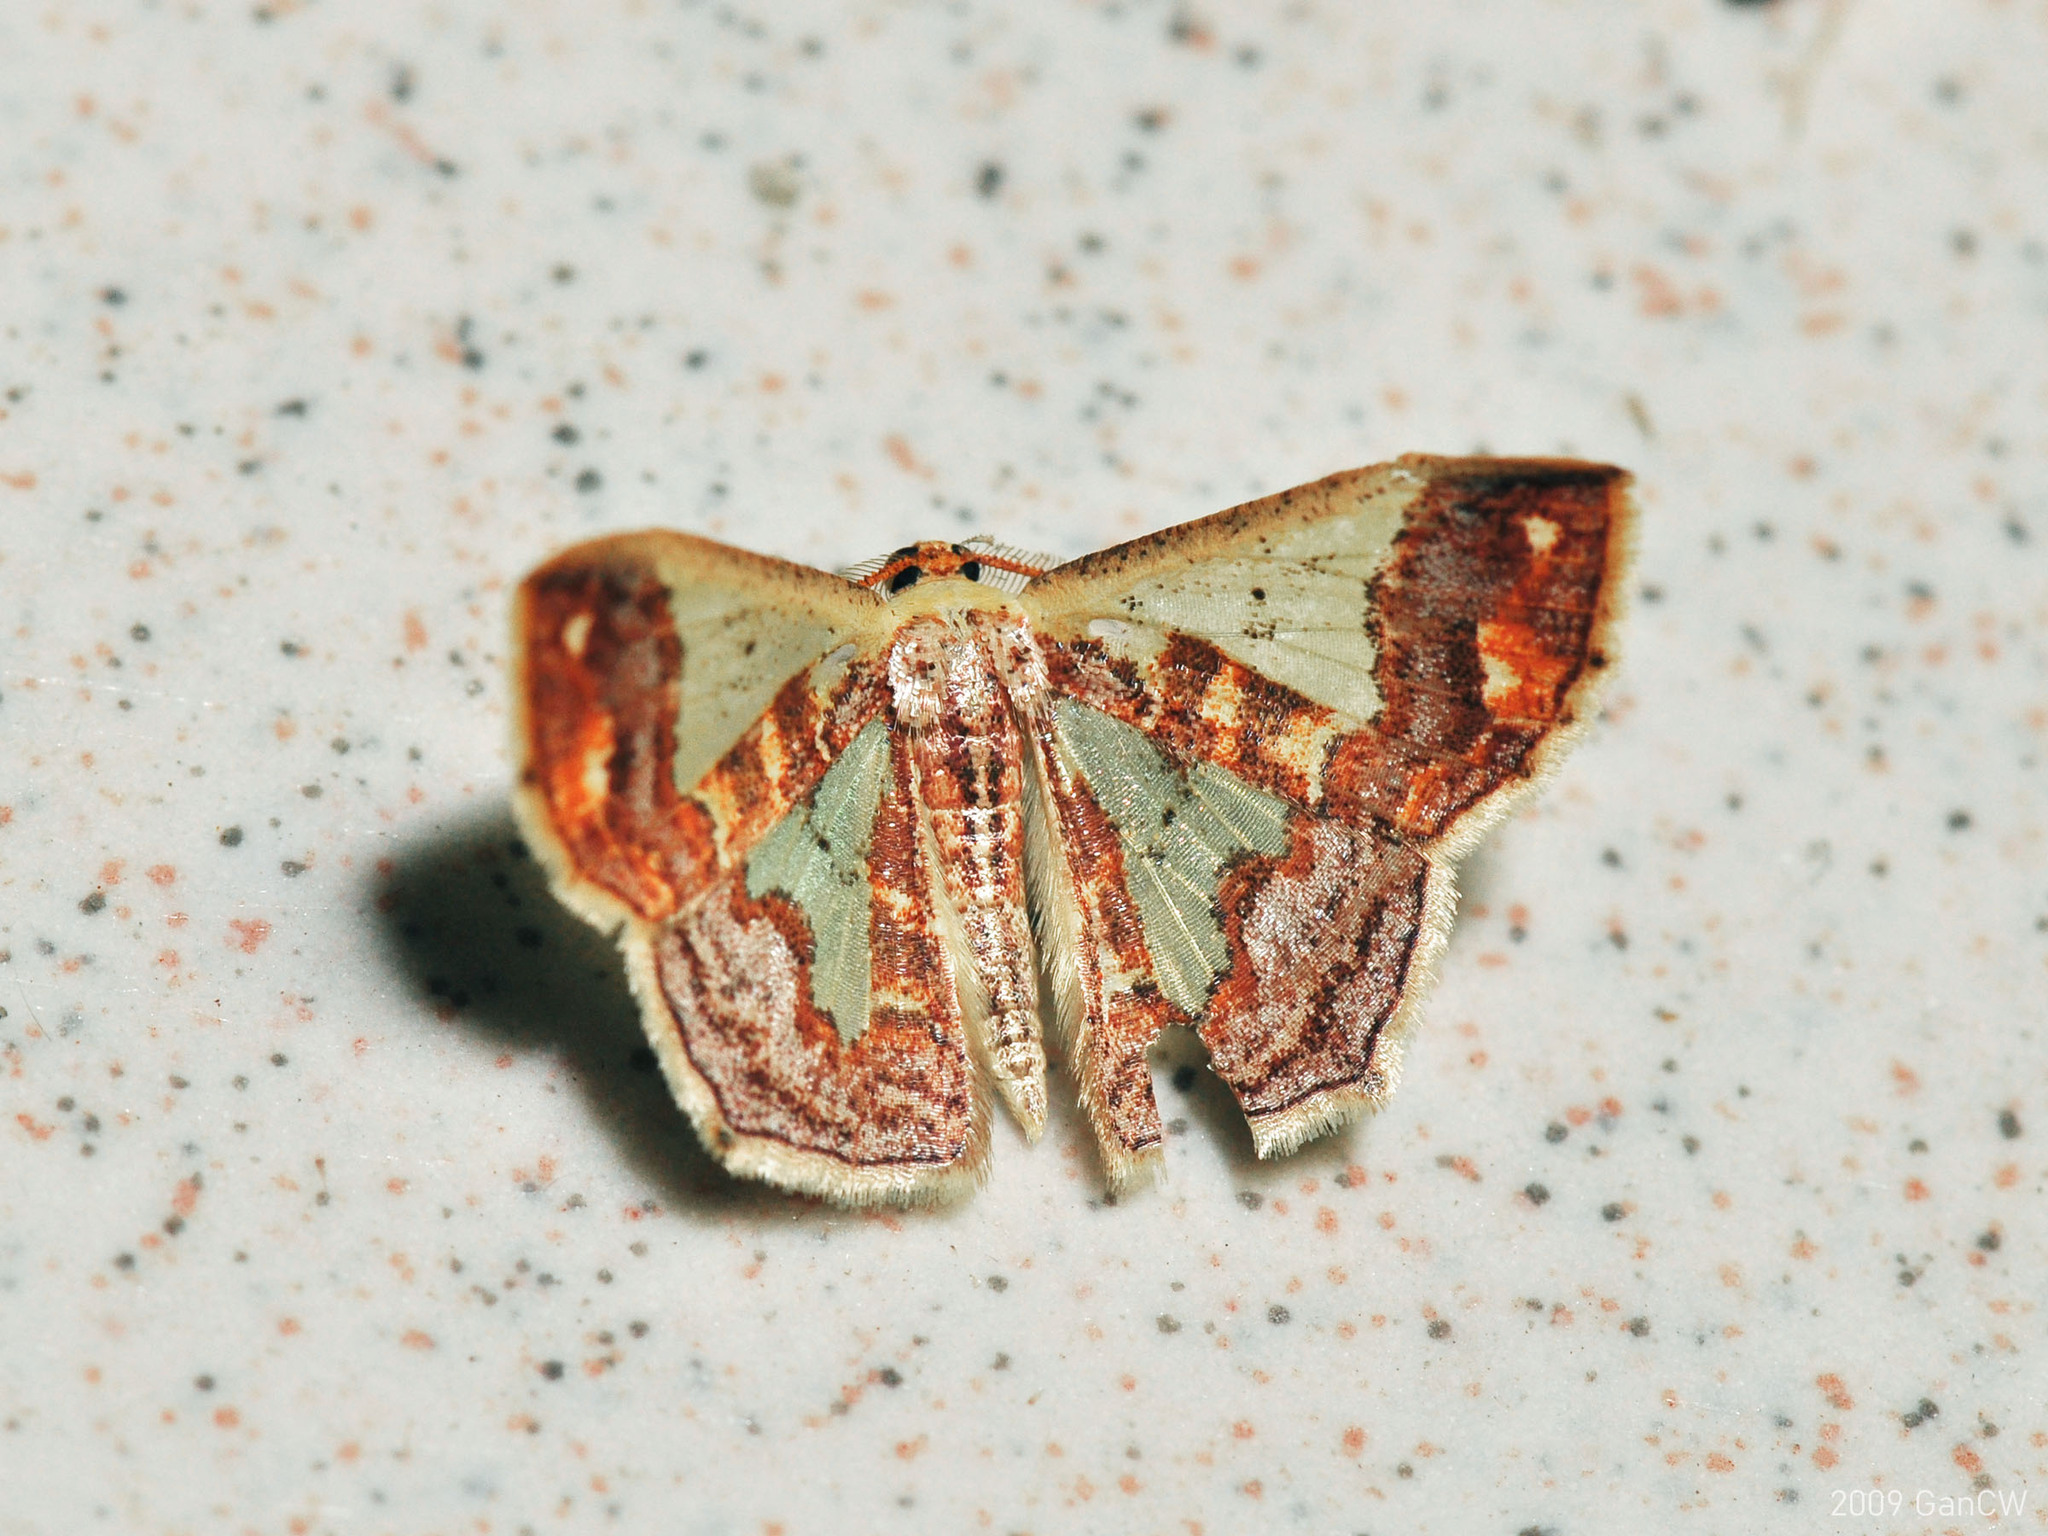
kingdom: Animalia
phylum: Arthropoda
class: Insecta
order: Lepidoptera
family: Geometridae
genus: Peratophyga
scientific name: Peratophyga xanthyala
